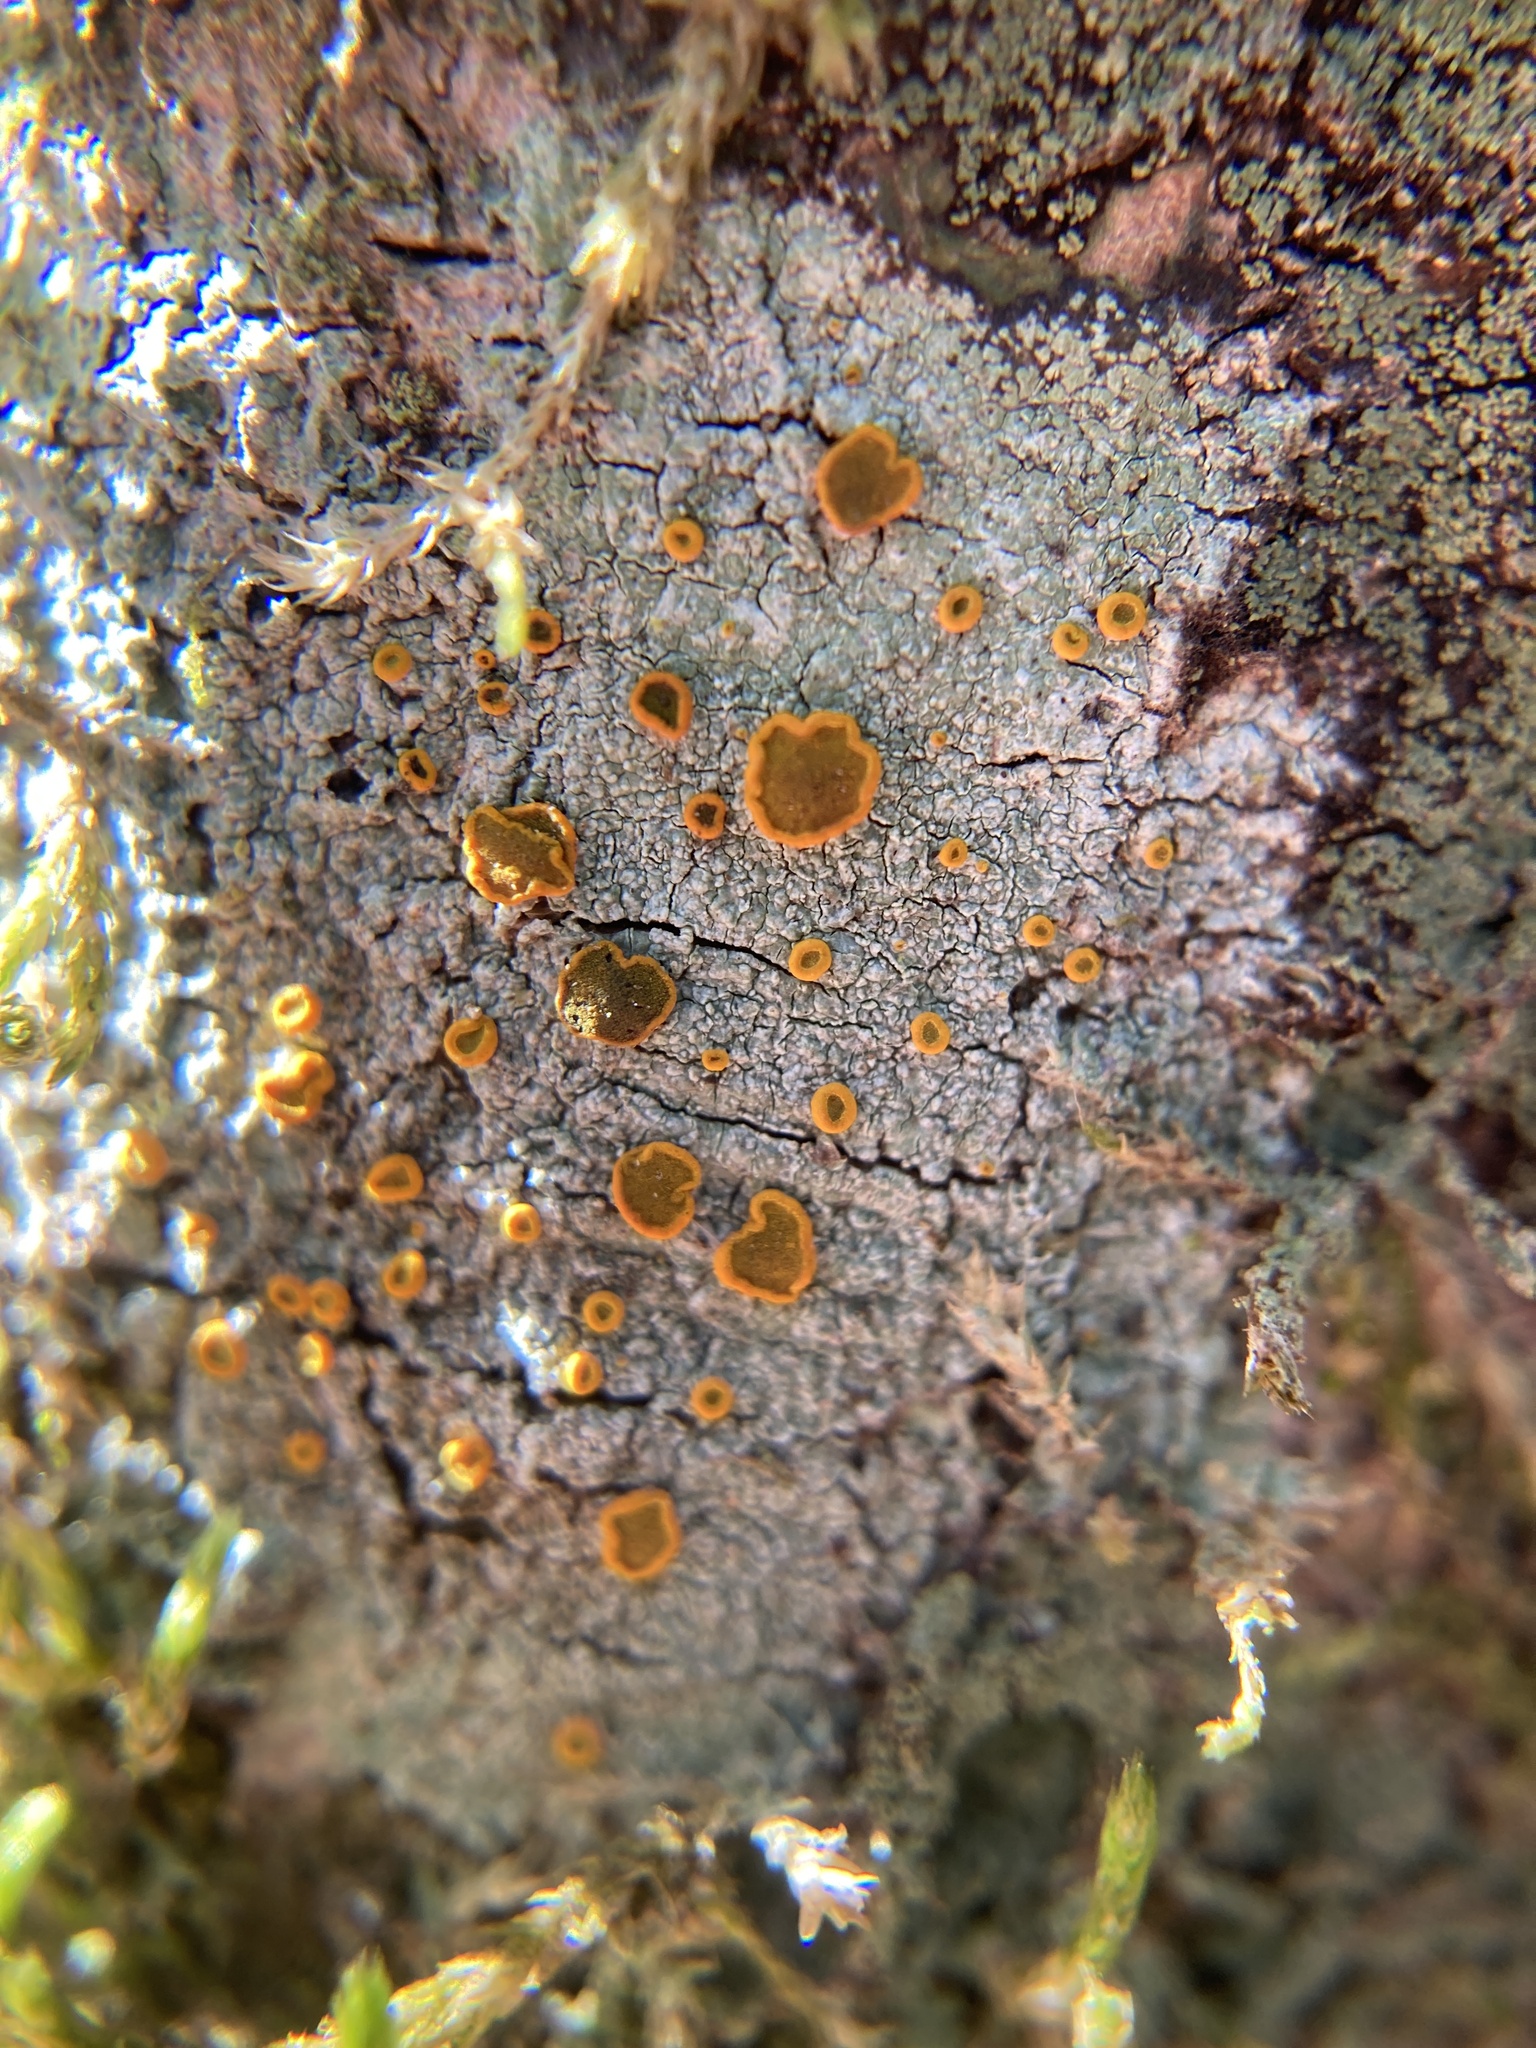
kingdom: Fungi
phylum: Ascomycota
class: Lecanoromycetes
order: Teloschistales
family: Brigantiaeaceae
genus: Brigantiaea
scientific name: Brigantiaea leucoxantha
